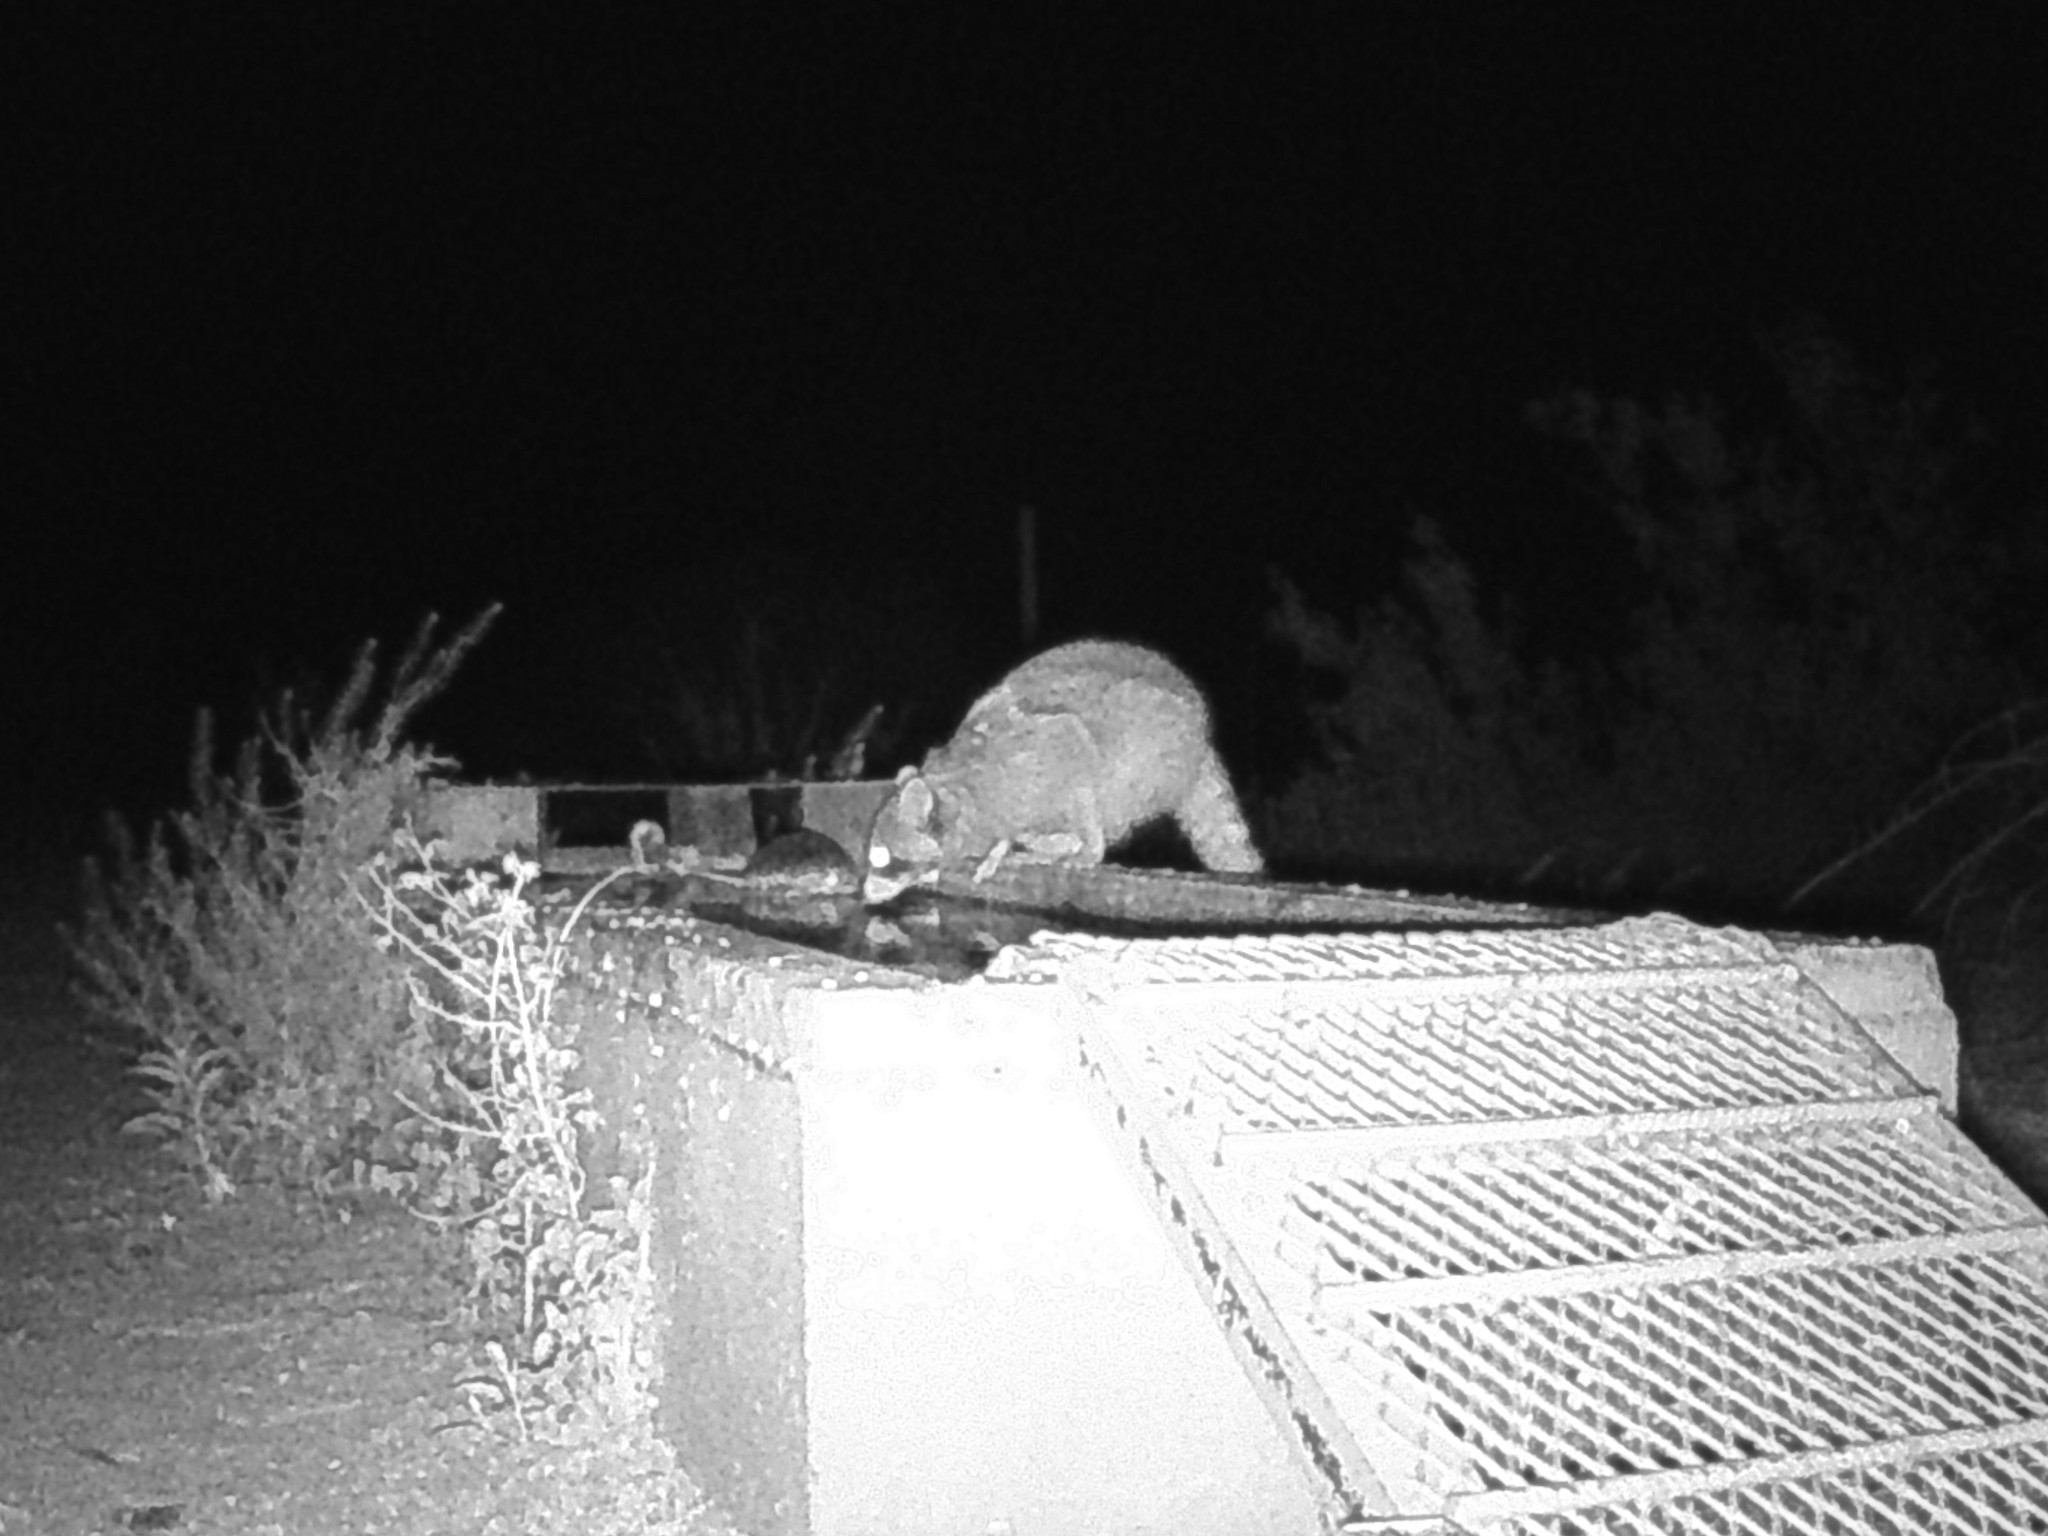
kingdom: Animalia
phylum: Chordata
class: Mammalia
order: Carnivora
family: Procyonidae
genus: Procyon
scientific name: Procyon lotor
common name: Raccoon
